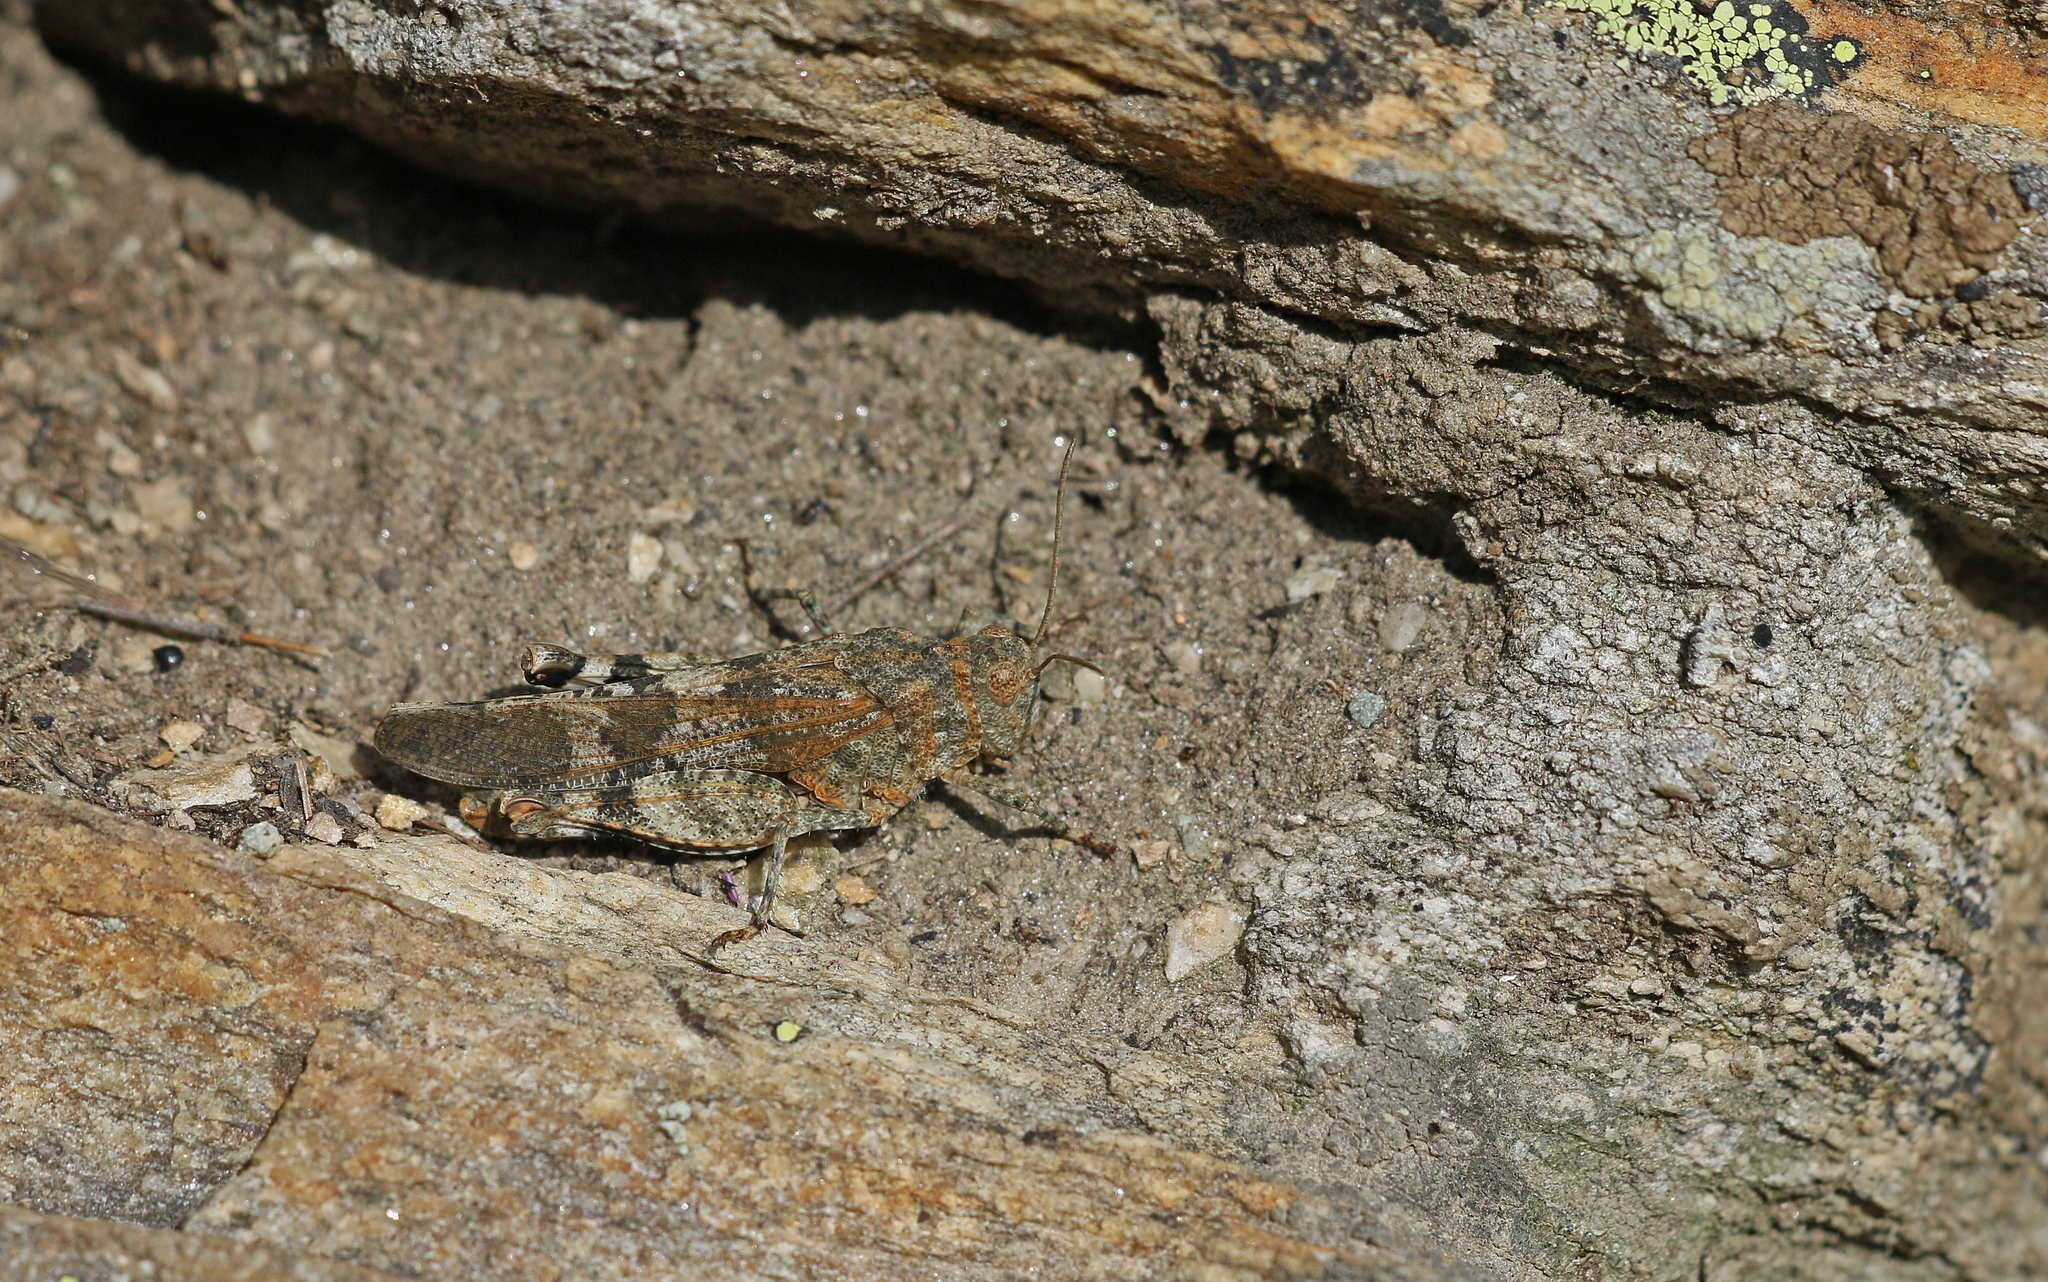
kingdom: Animalia
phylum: Arthropoda
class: Insecta
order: Orthoptera
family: Acrididae
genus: Oedipoda
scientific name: Oedipoda germanica
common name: Red band-winged grasshopper
